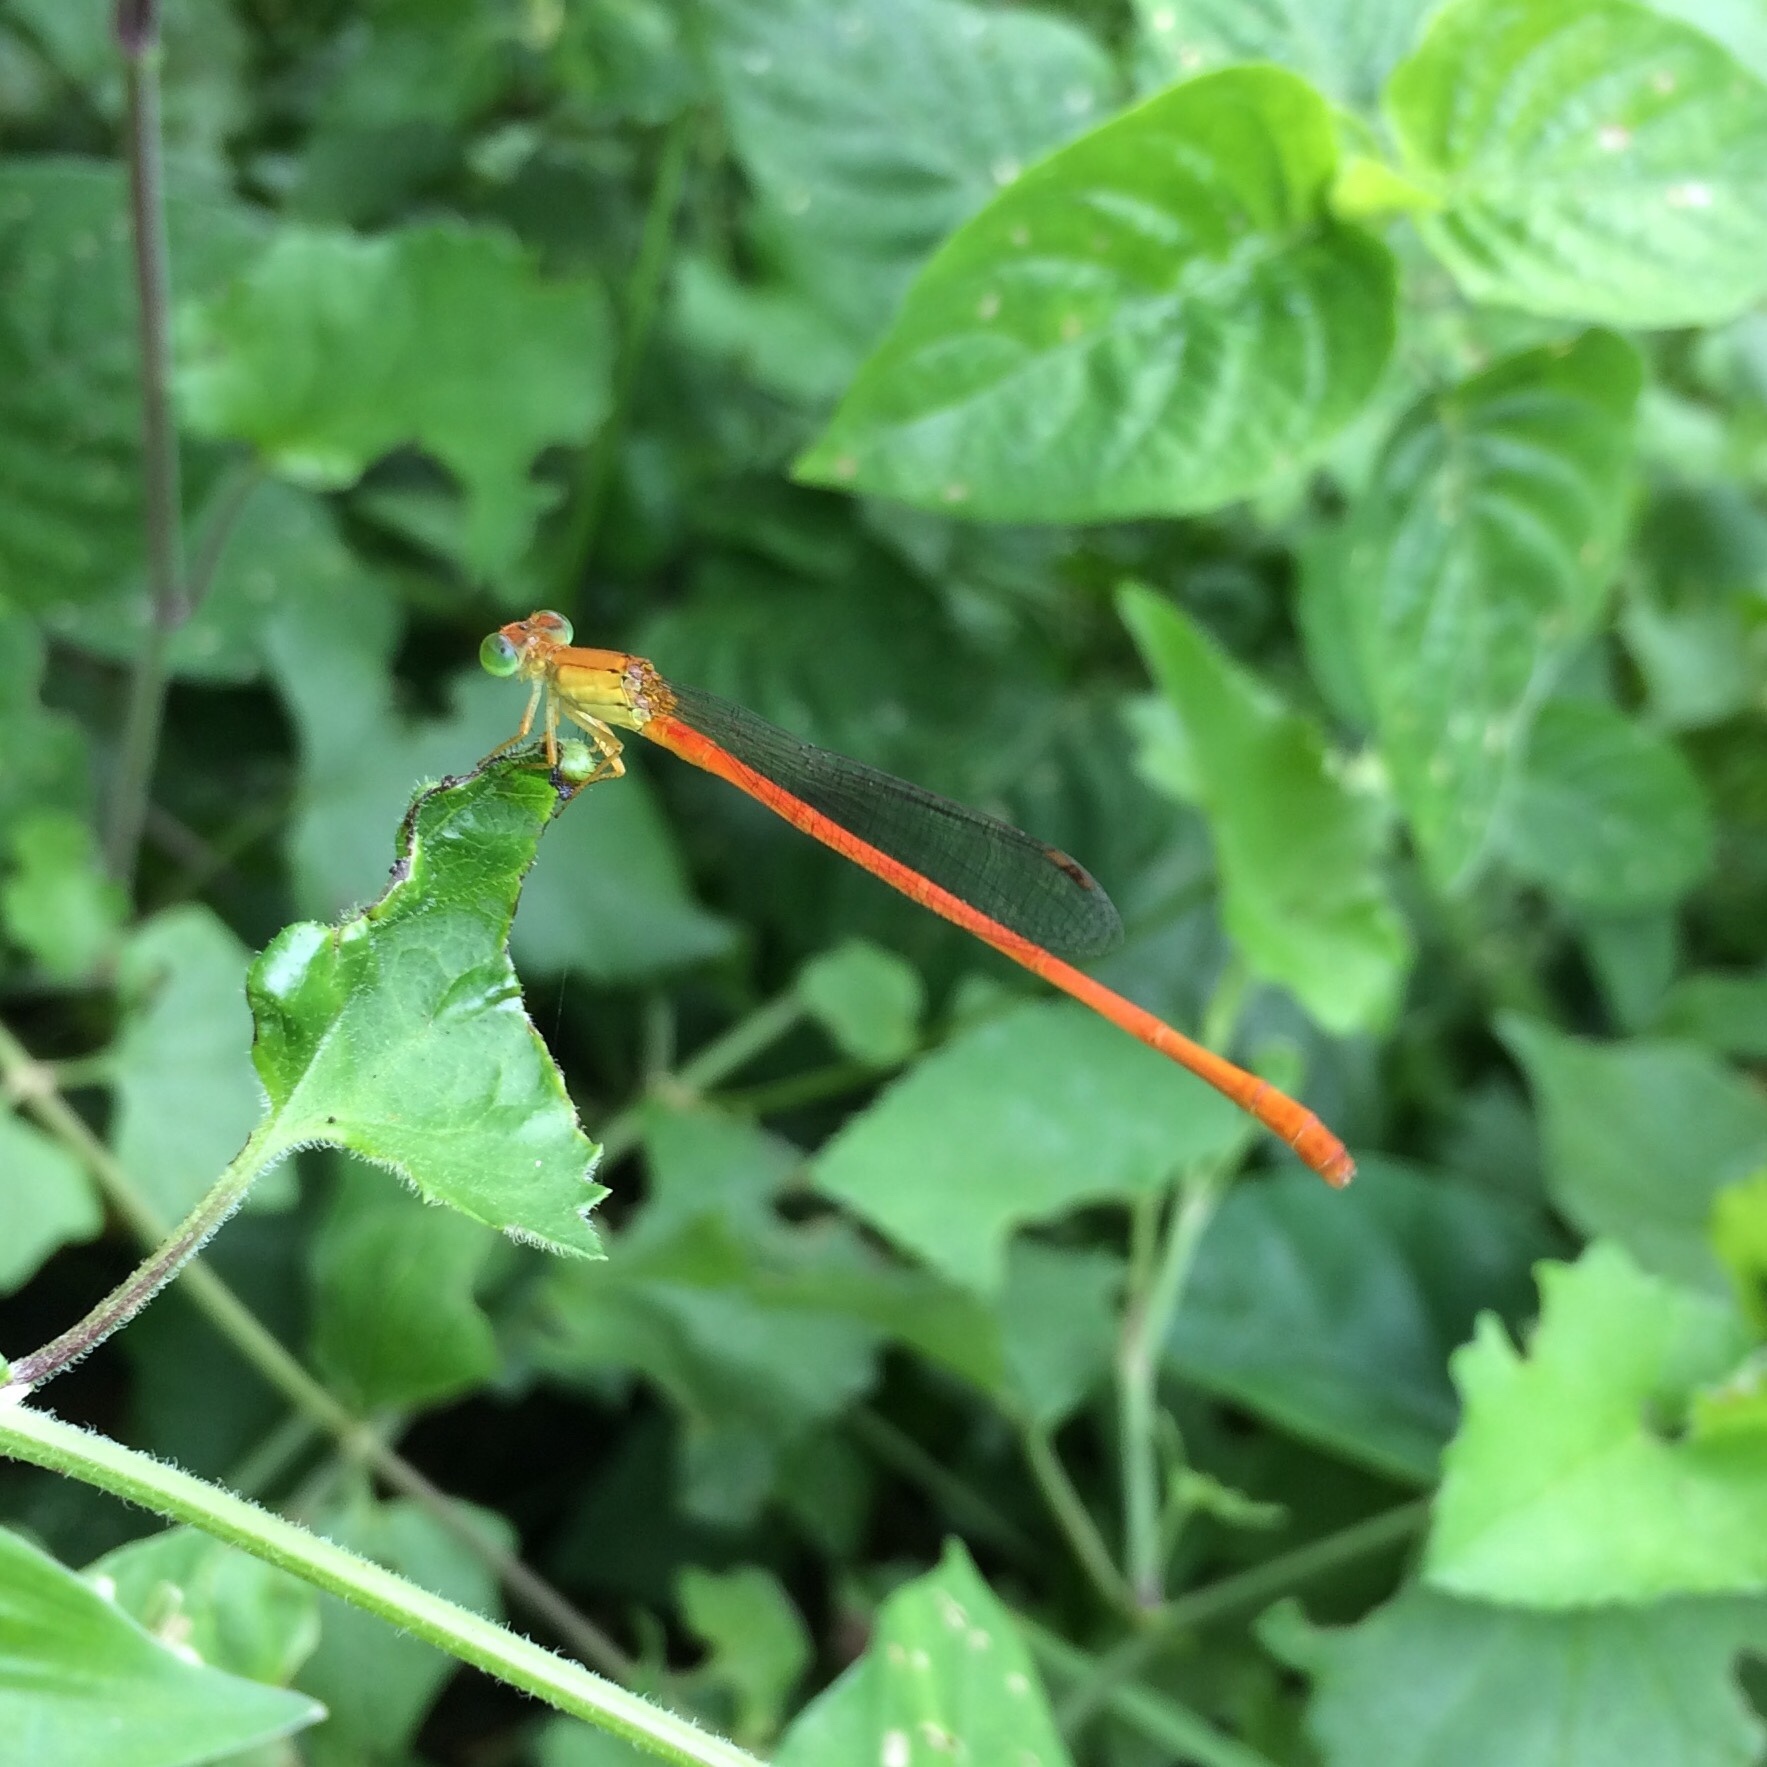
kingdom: Animalia
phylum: Arthropoda
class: Insecta
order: Odonata
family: Coenagrionidae
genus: Ceriagrion
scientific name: Ceriagrion glabrum
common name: Common pond damsel
